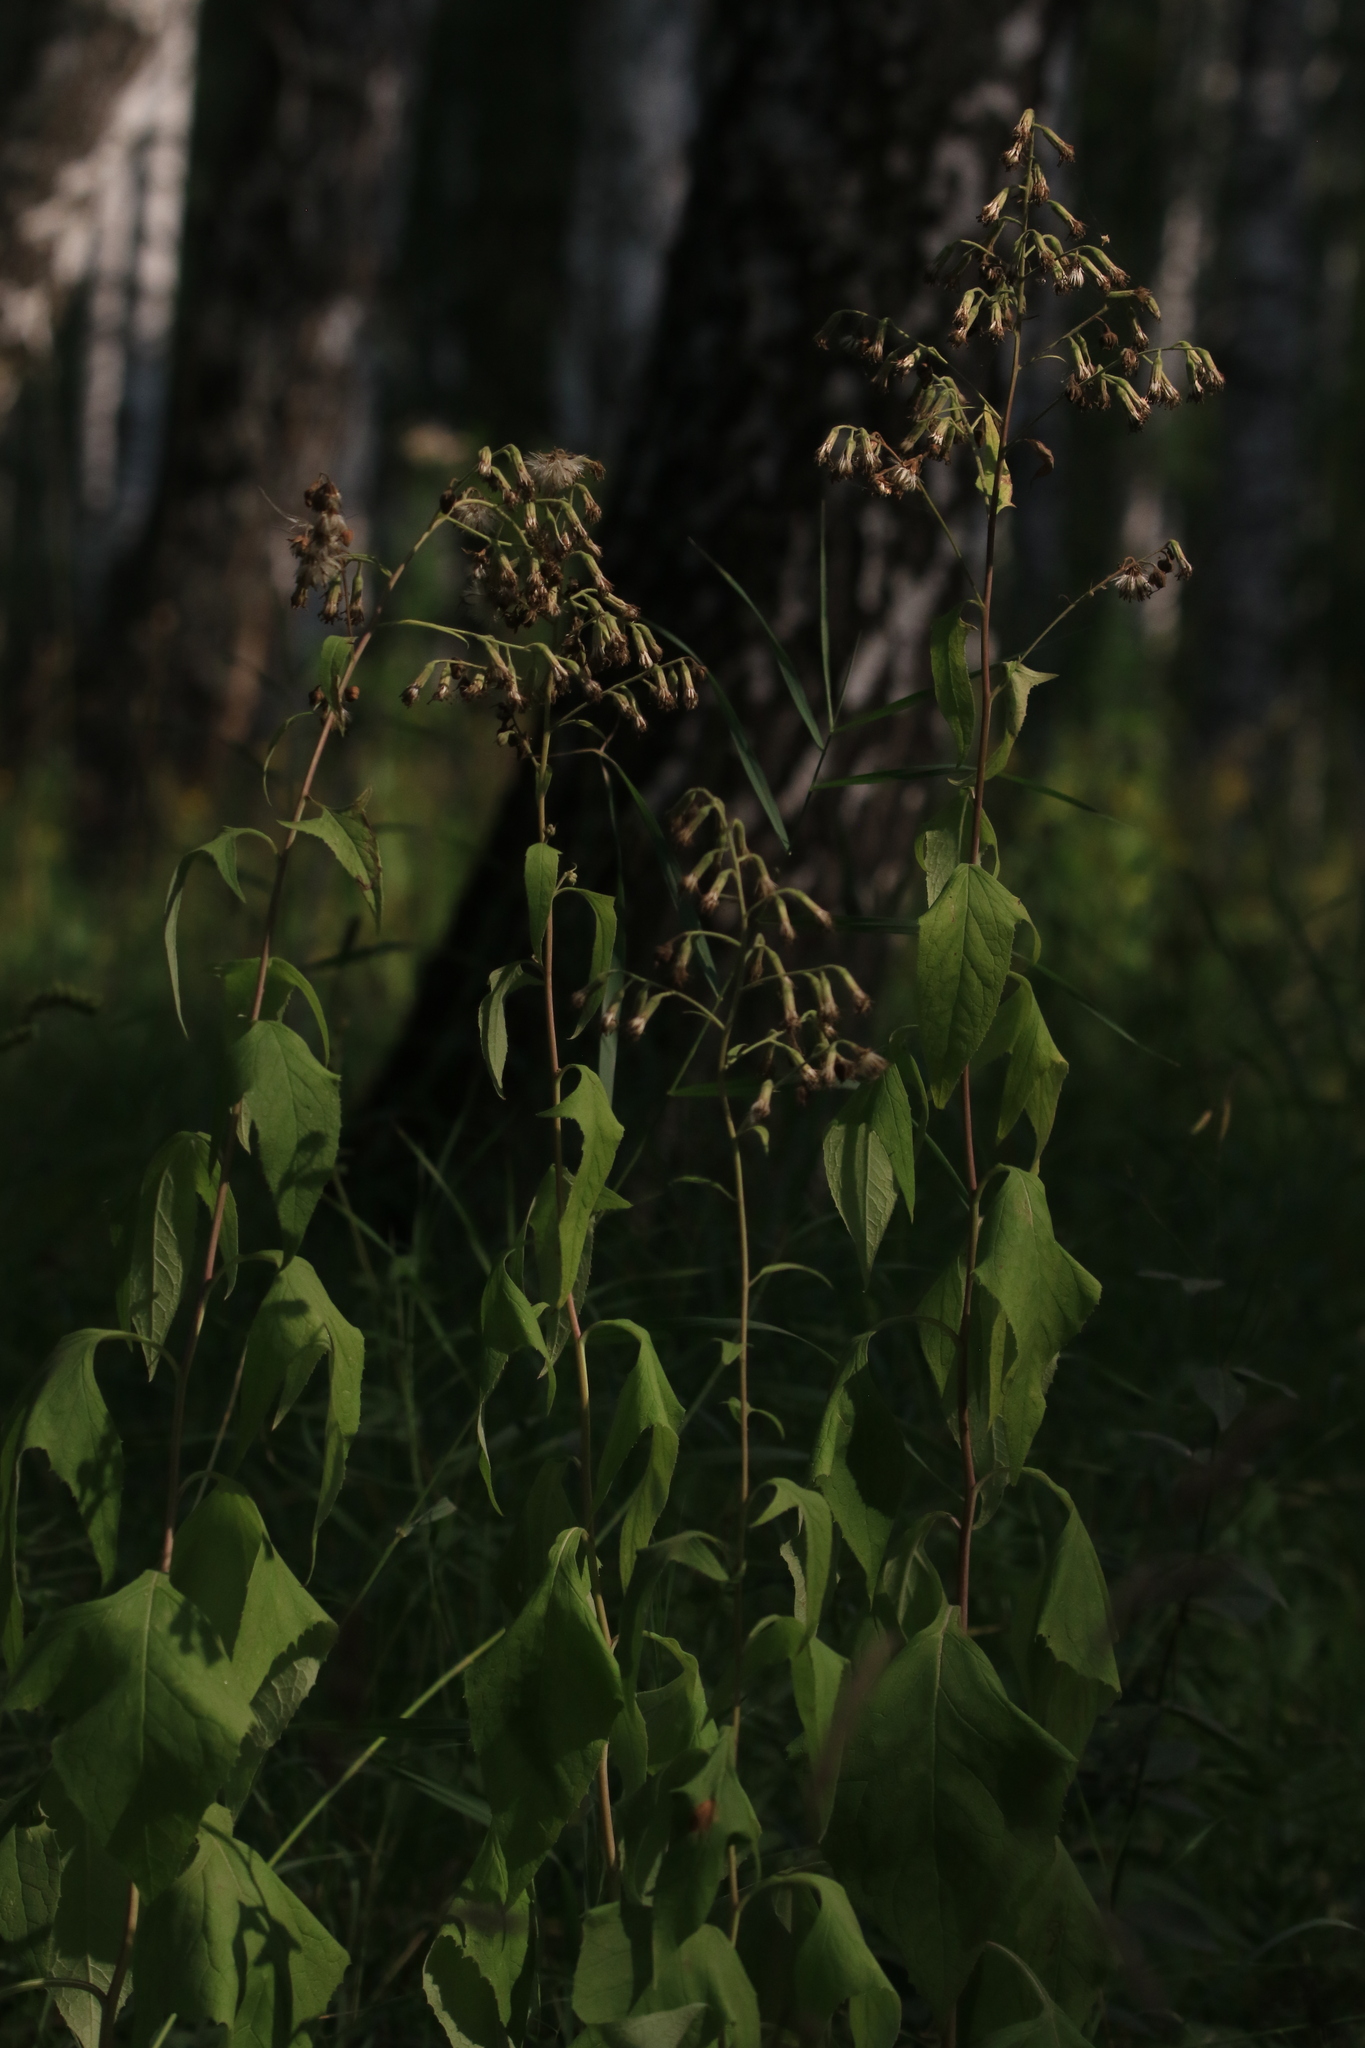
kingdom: Plantae
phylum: Tracheophyta
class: Magnoliopsida
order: Asterales
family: Asteraceae
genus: Parasenecio
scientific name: Parasenecio hastatus
